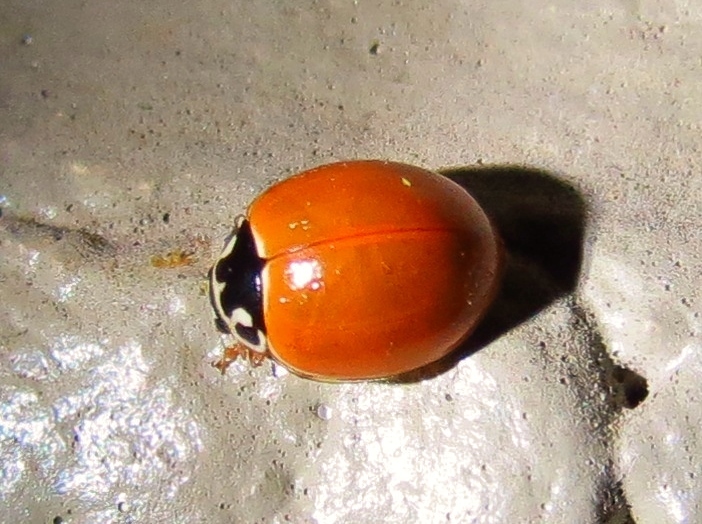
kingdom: Animalia
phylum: Arthropoda
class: Insecta
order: Coleoptera
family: Coccinellidae
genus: Cycloneda
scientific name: Cycloneda munda
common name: Polished lady beetle
